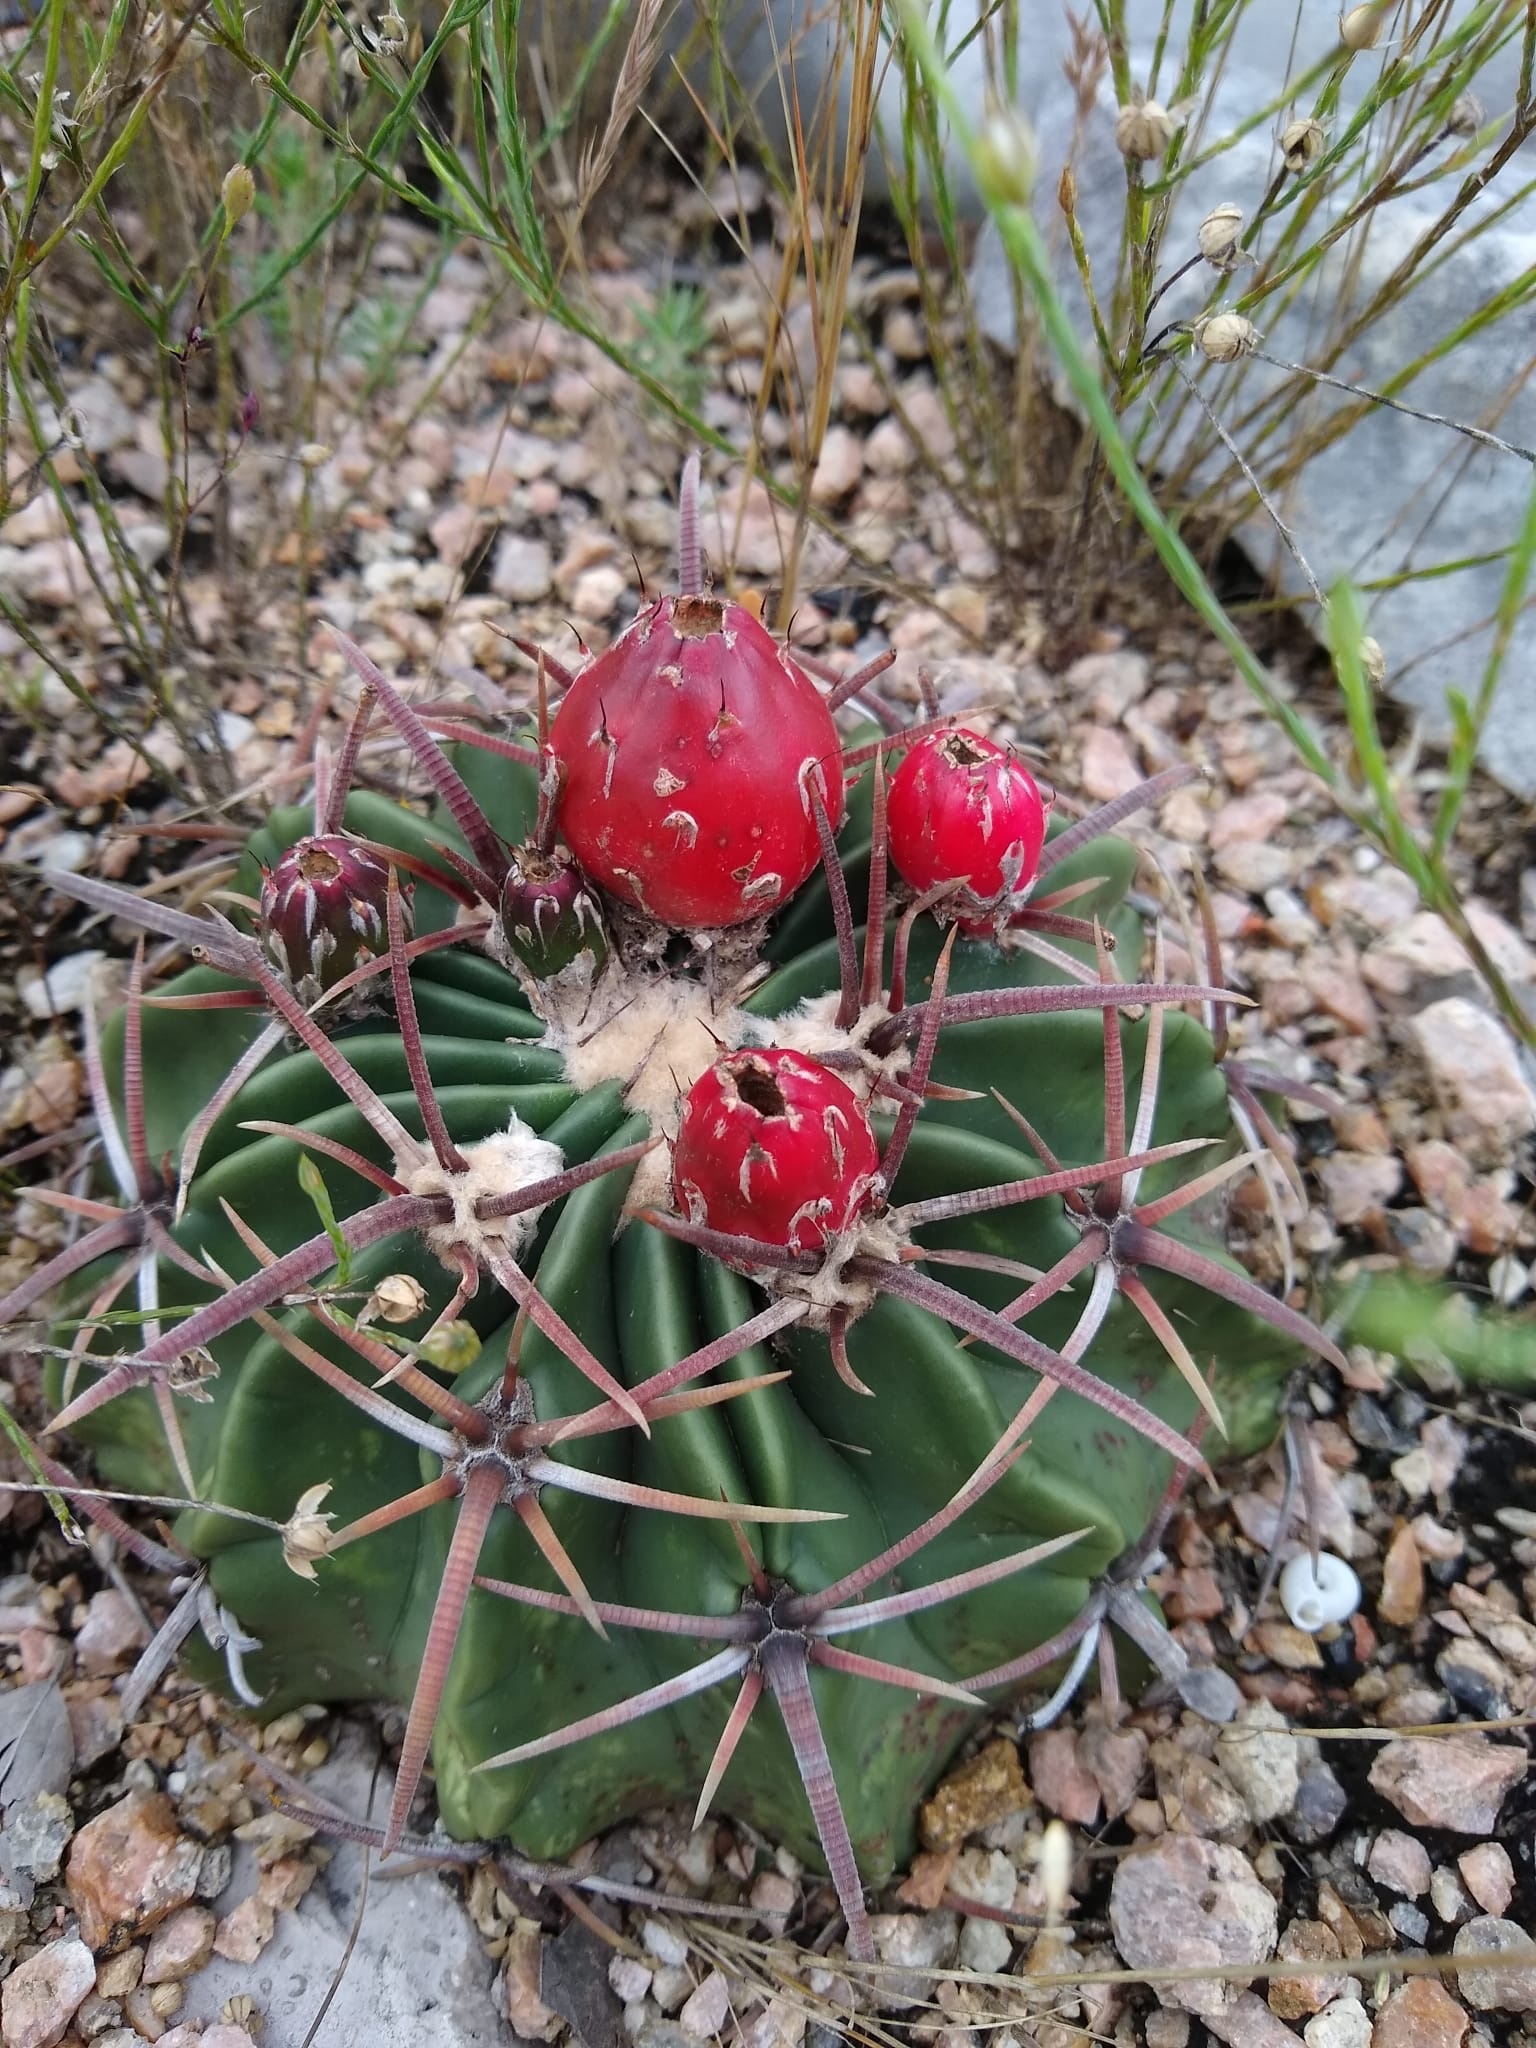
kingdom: Plantae
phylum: Tracheophyta
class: Magnoliopsida
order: Caryophyllales
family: Cactaceae
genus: Echinocactus
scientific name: Echinocactus texensis
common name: Devil's pincushion
